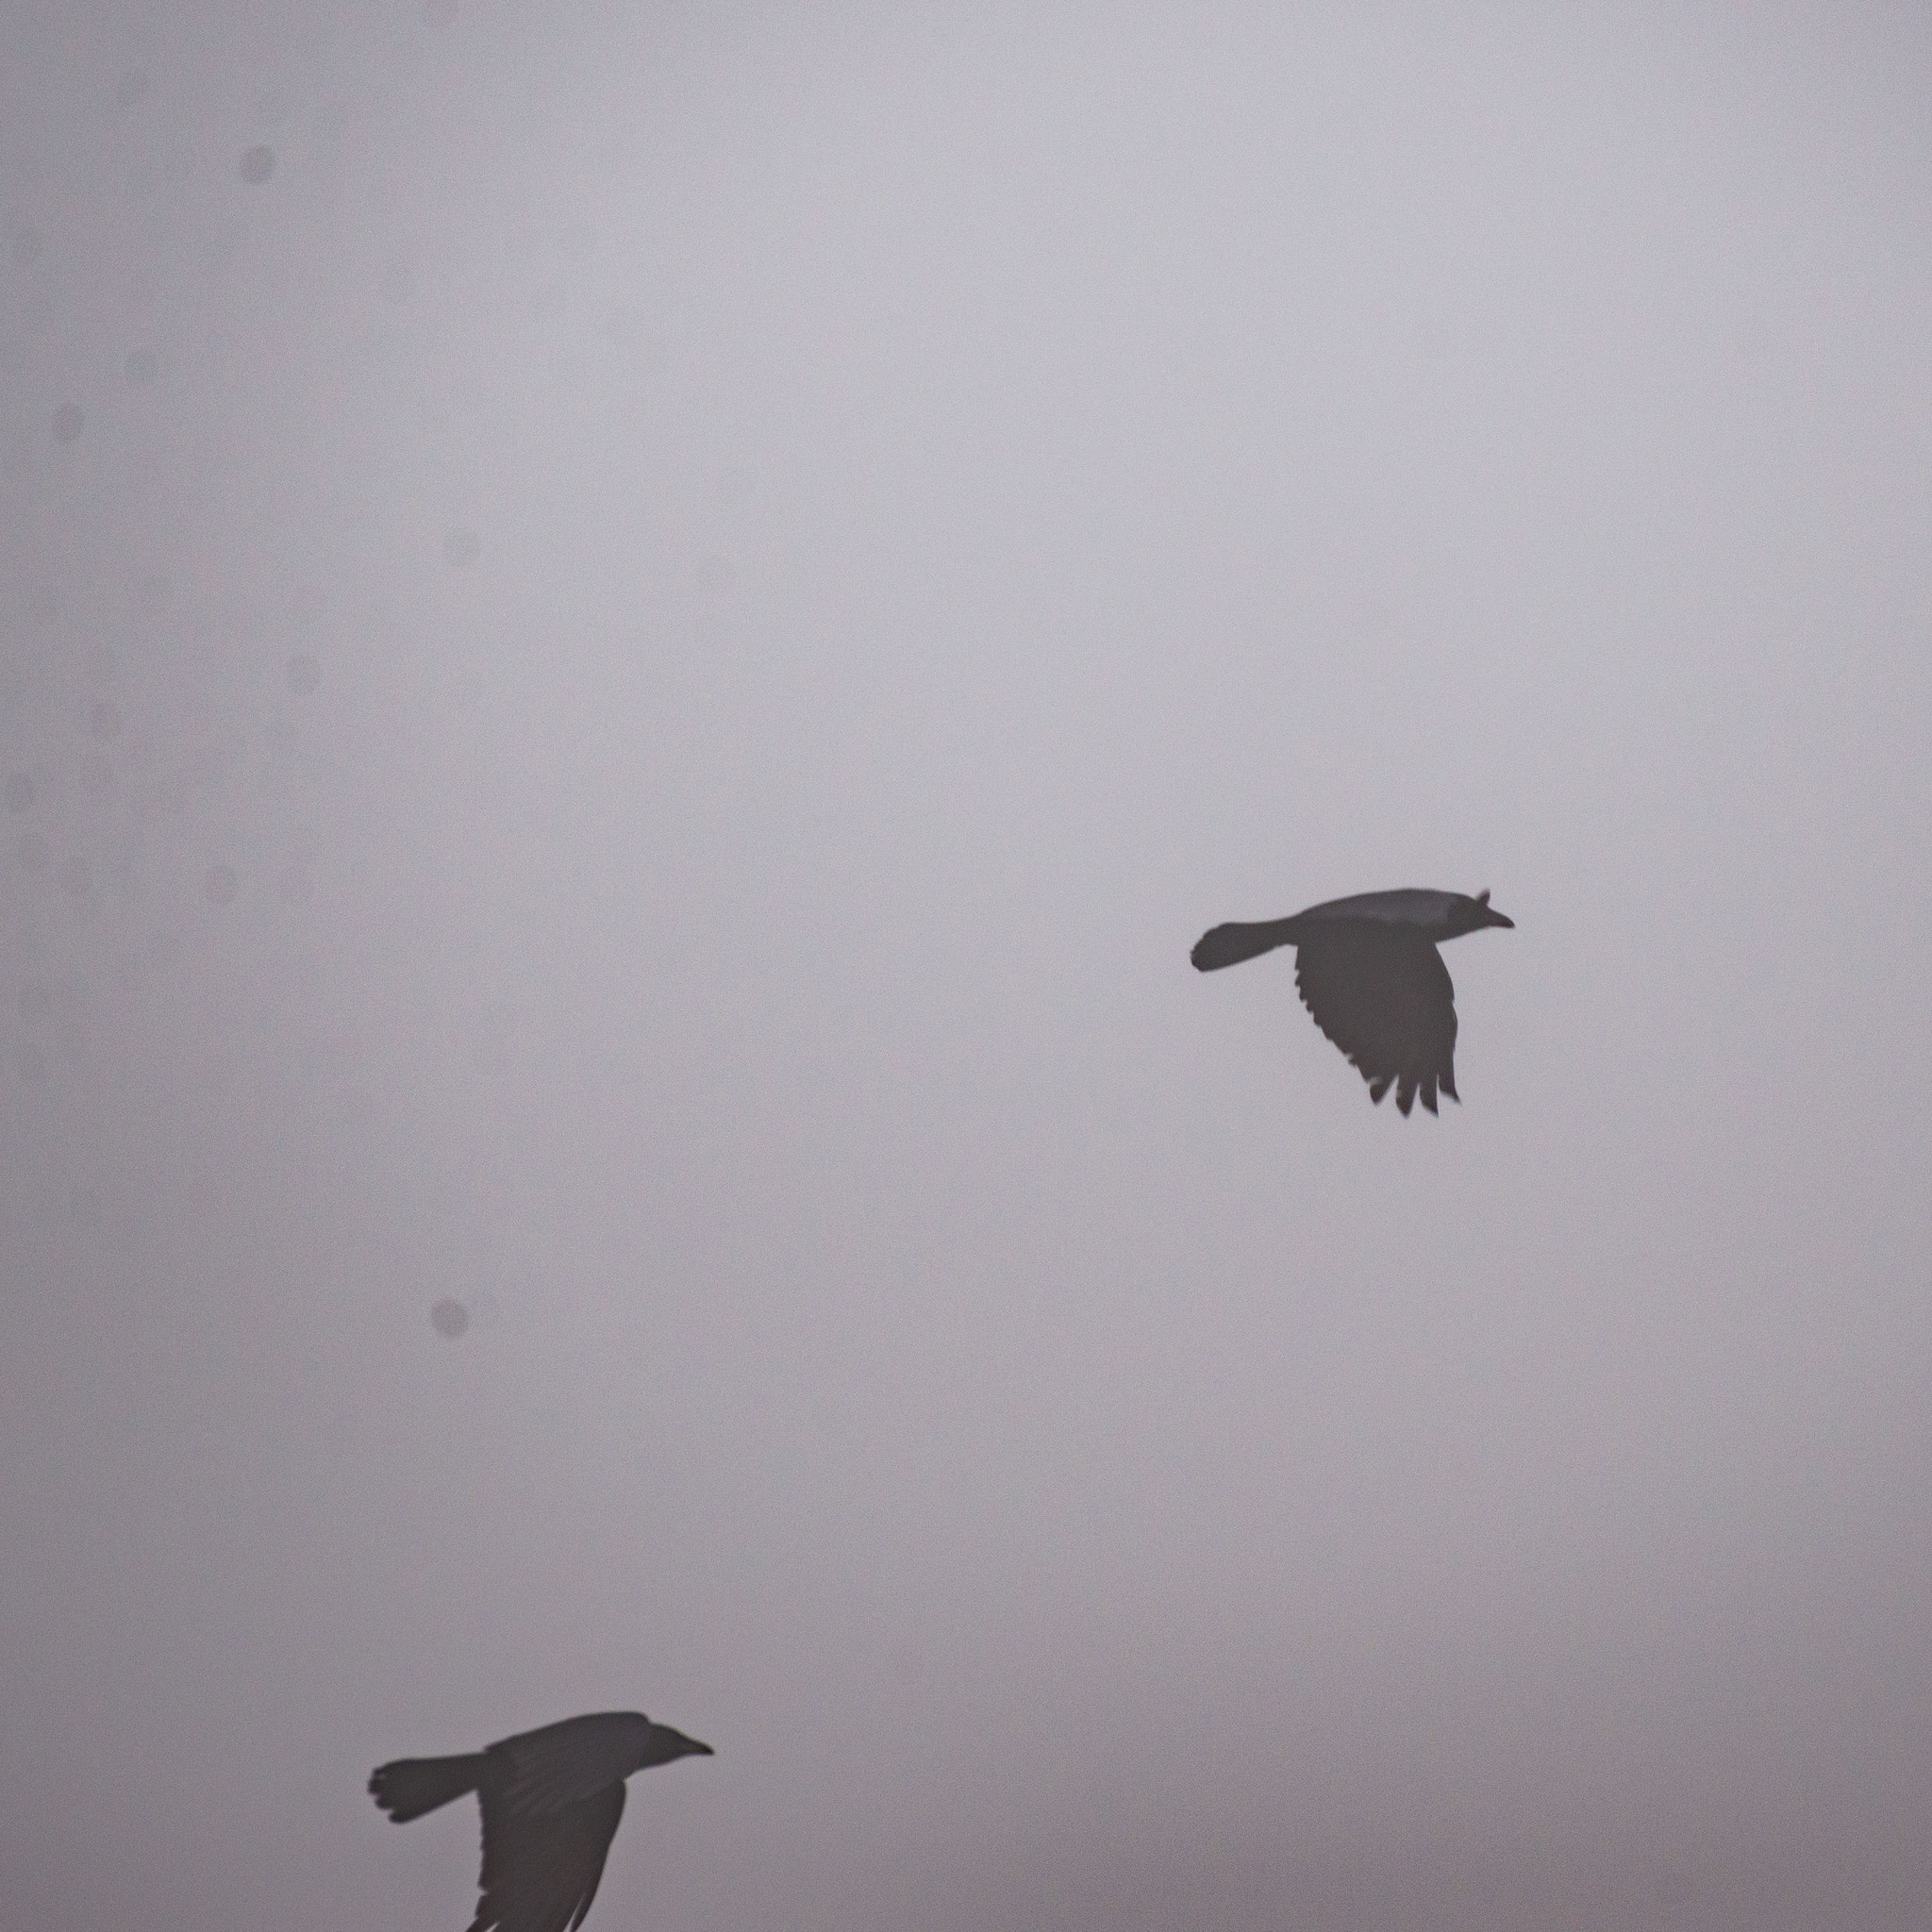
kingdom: Animalia
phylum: Chordata
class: Aves
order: Passeriformes
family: Corvidae
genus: Corvus
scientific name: Corvus corone
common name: Carrion crow
